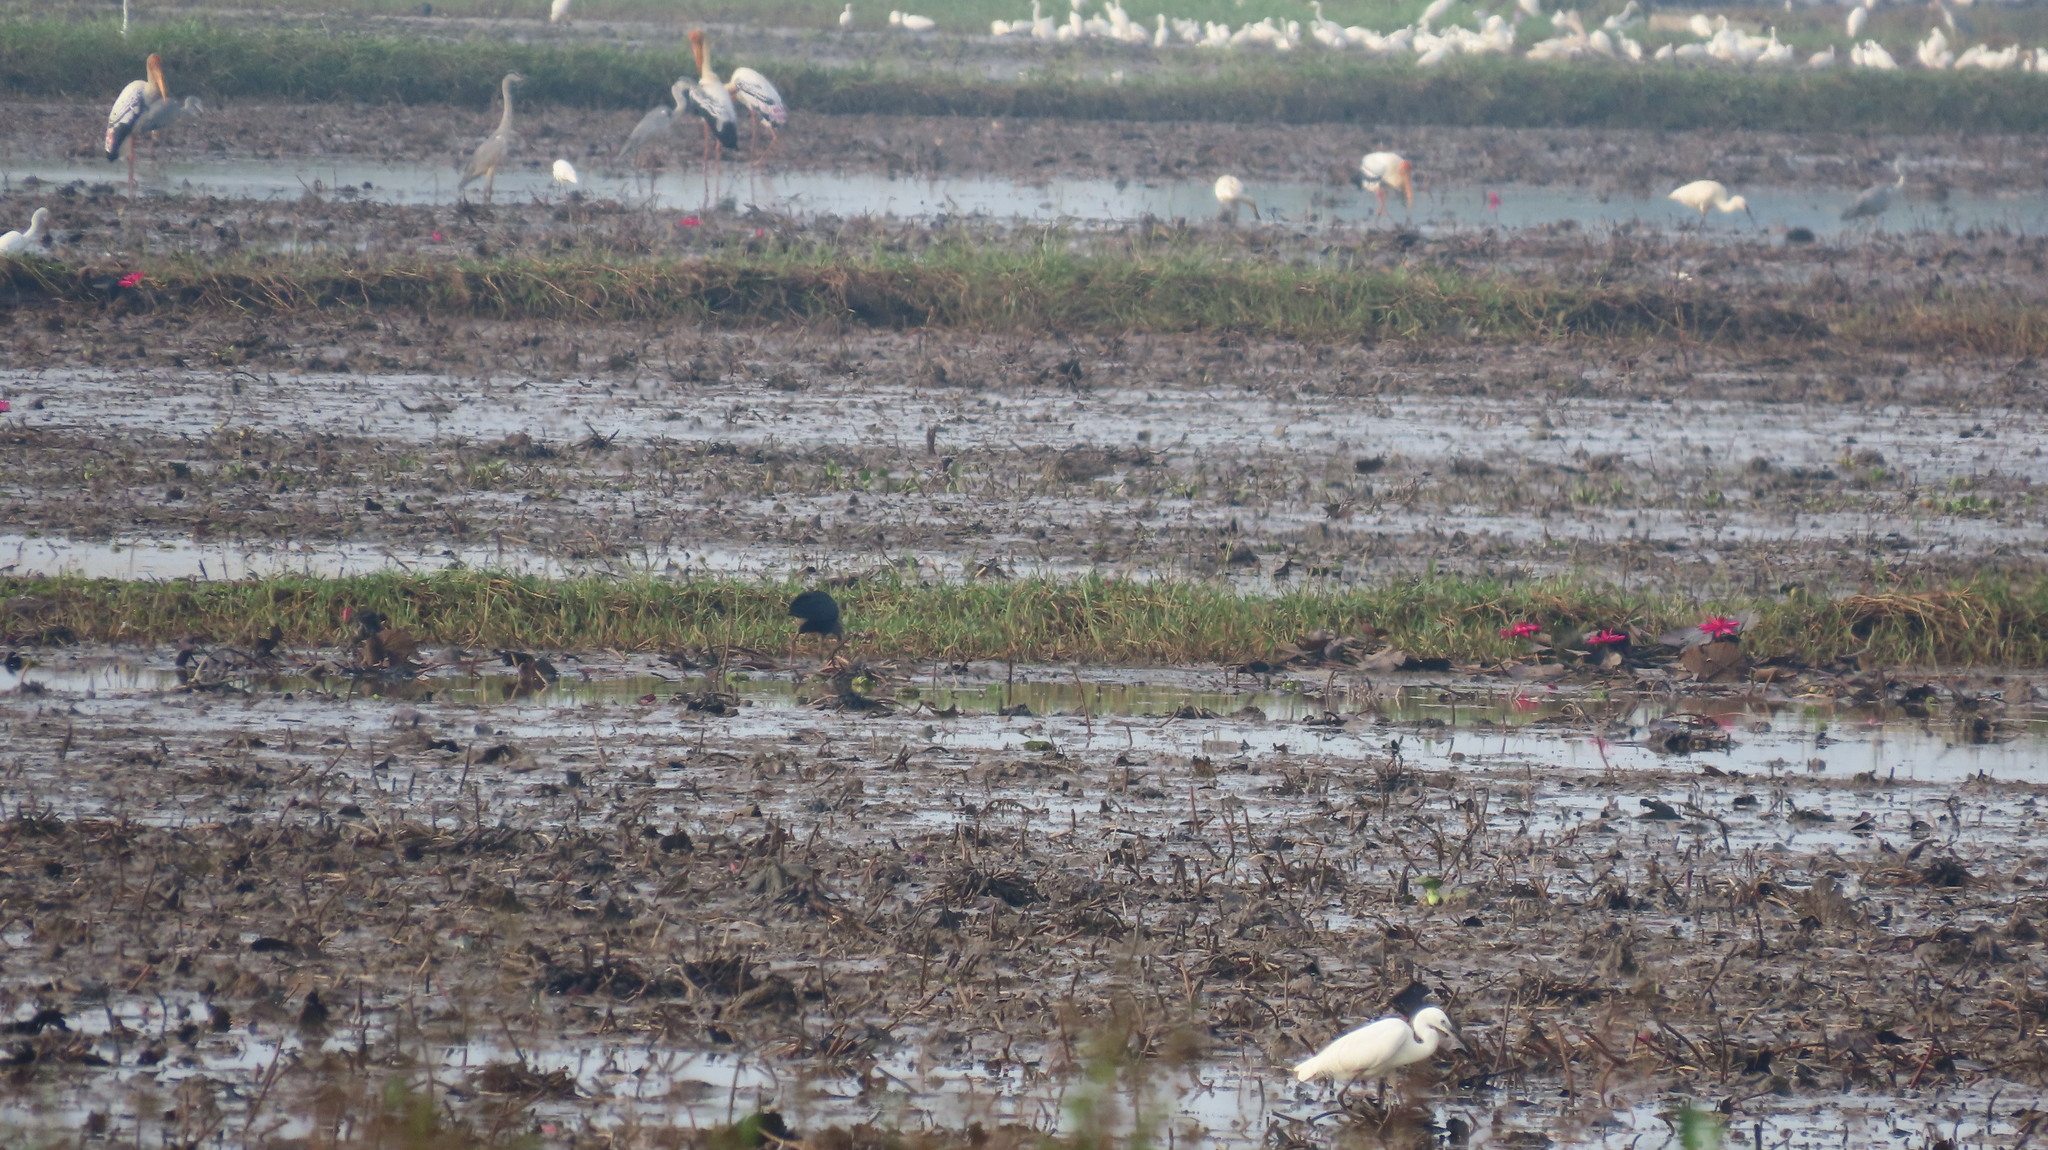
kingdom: Animalia
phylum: Chordata
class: Aves
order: Pelecaniformes
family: Ardeidae
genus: Egretta
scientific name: Egretta garzetta
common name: Little egret
